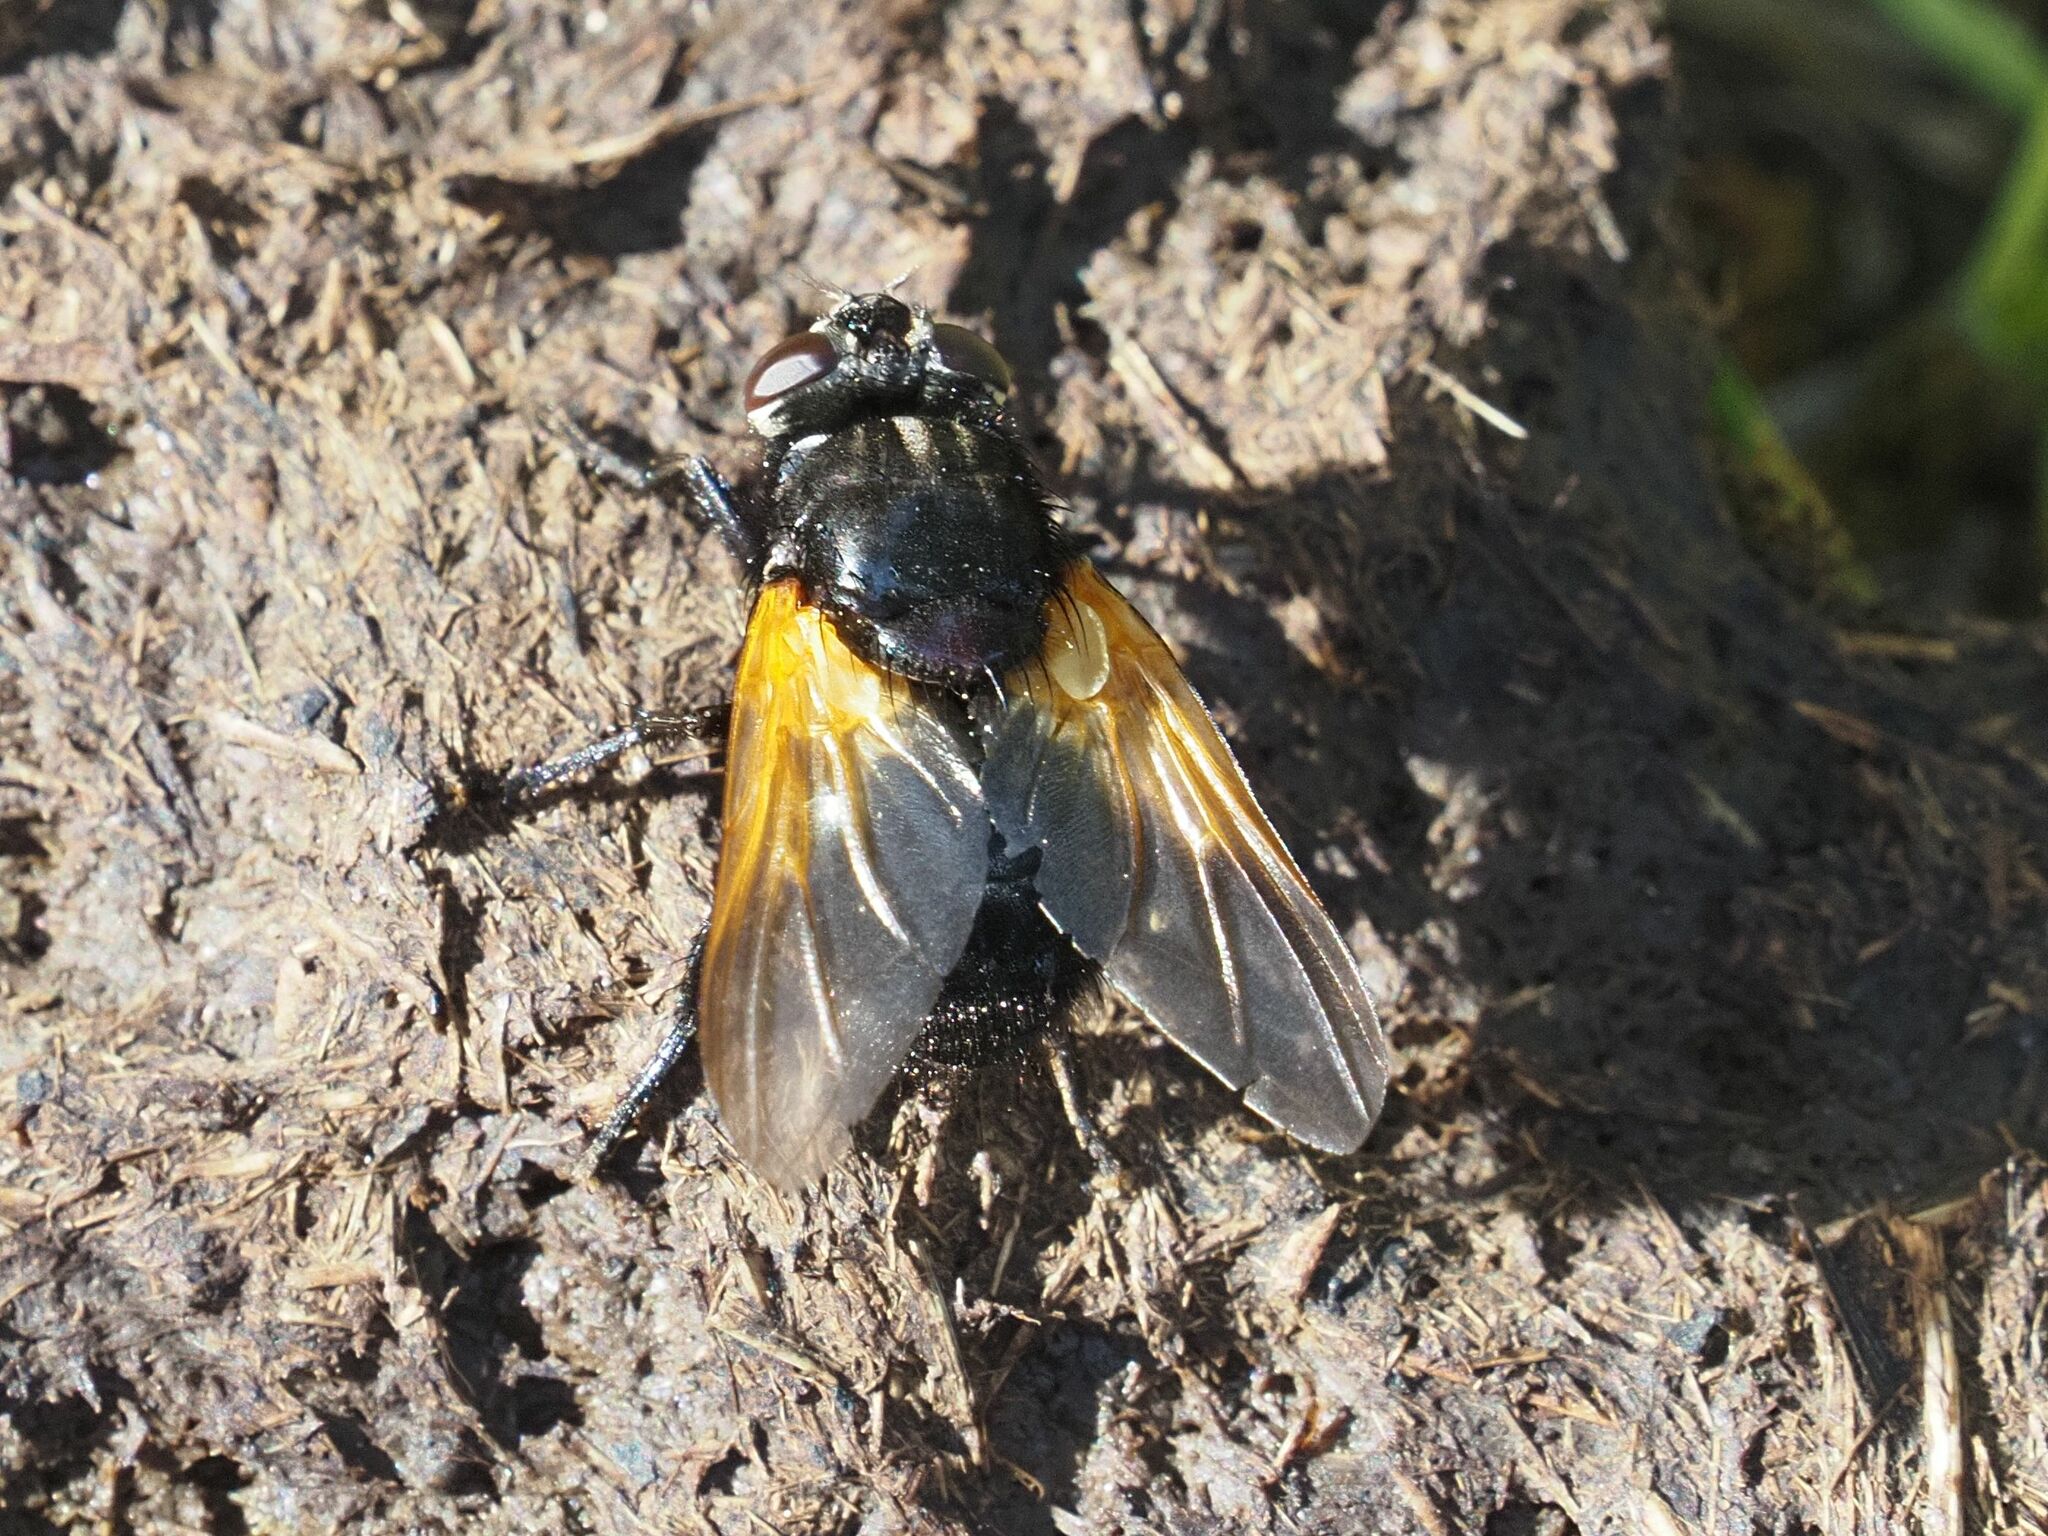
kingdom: Animalia
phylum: Arthropoda
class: Insecta
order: Diptera
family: Muscidae
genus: Mesembrina
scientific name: Mesembrina meridiana
